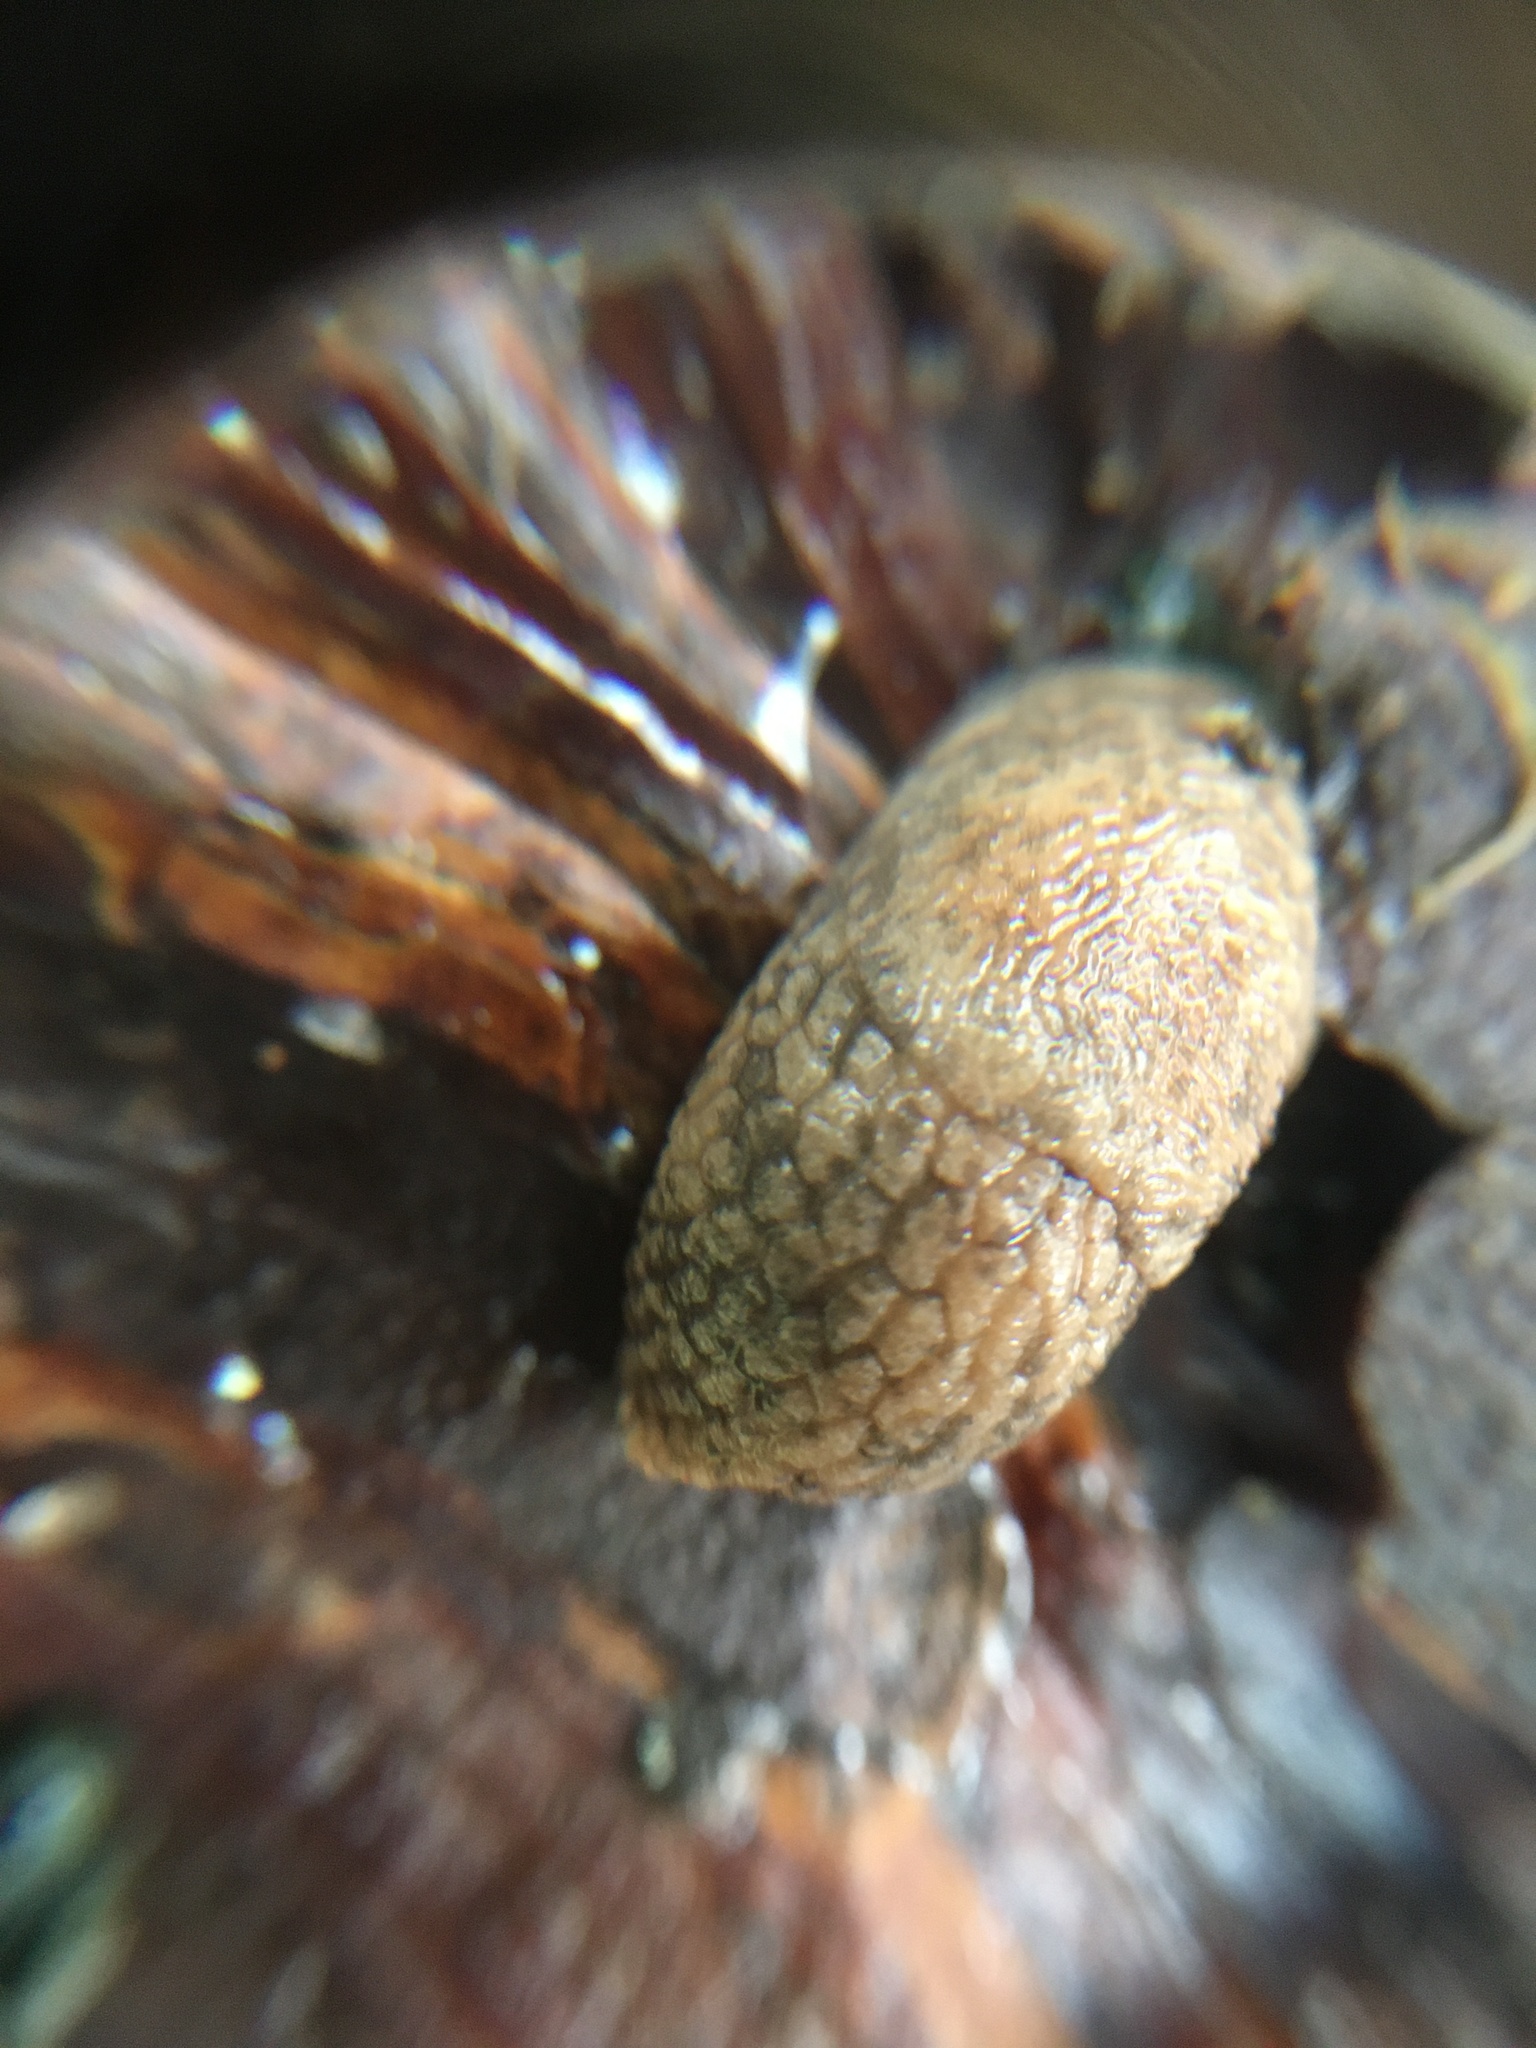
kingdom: Animalia
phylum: Mollusca
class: Gastropoda
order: Stylommatophora
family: Agriolimacidae
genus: Deroceras
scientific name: Deroceras reticulatum
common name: Gray field slug
